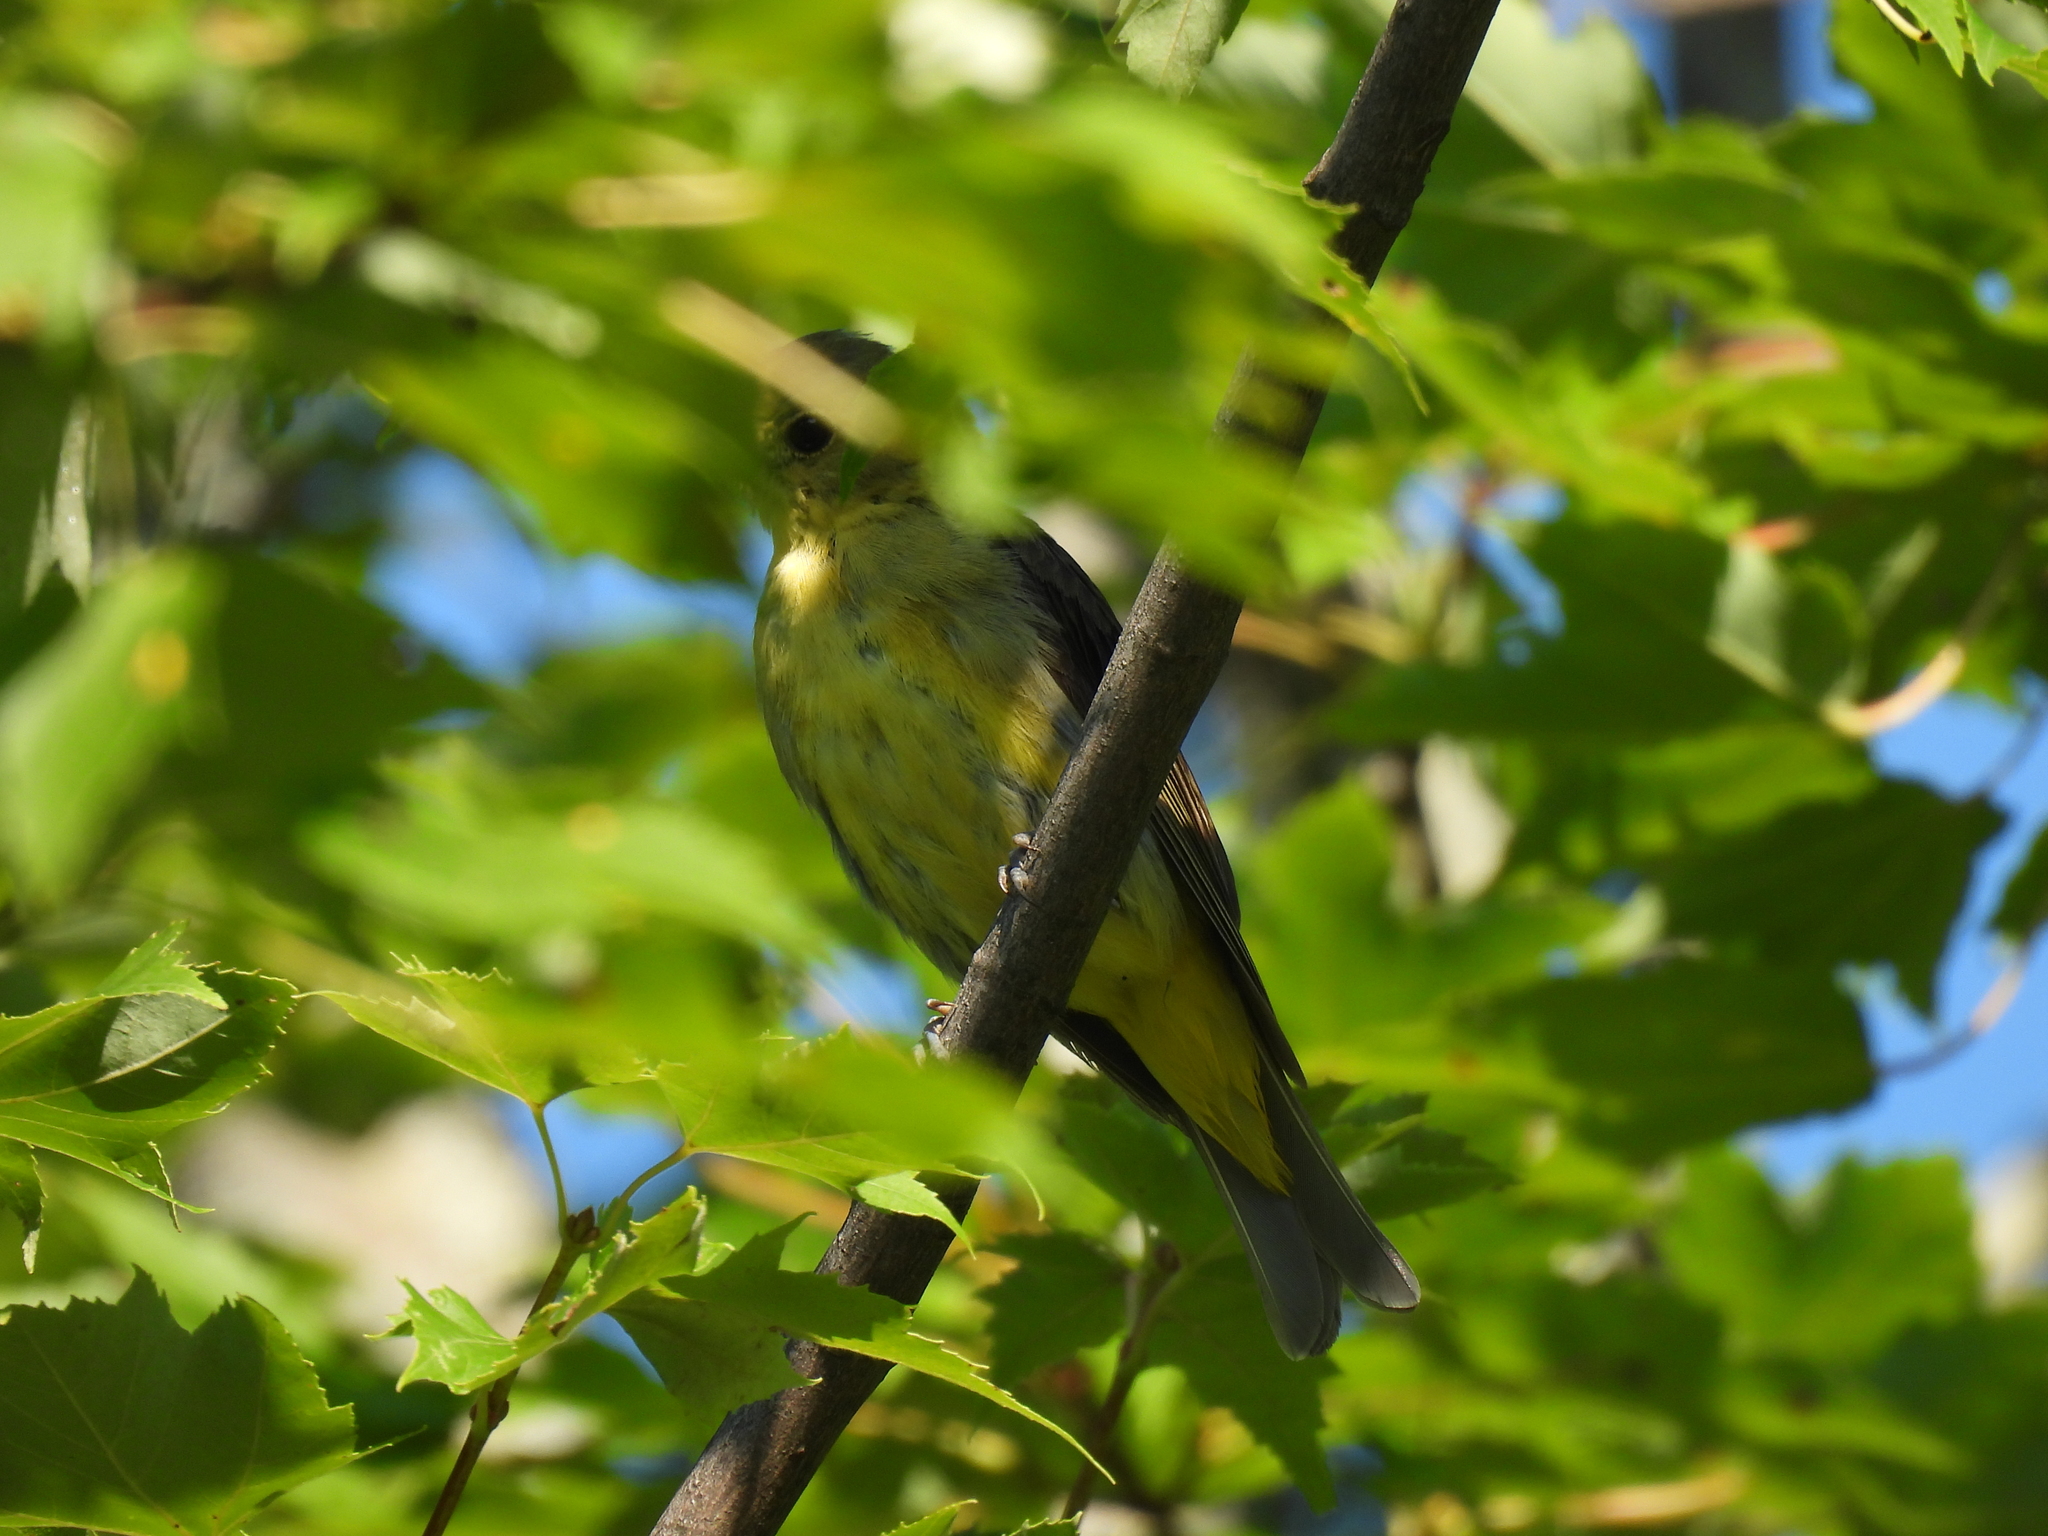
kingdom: Animalia
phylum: Chordata
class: Aves
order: Passeriformes
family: Cardinalidae
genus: Piranga
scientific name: Piranga olivacea
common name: Scarlet tanager
